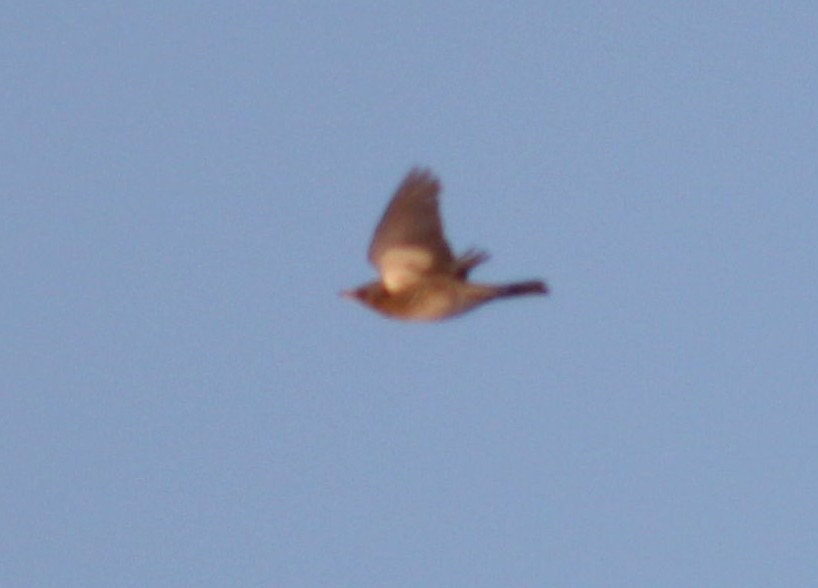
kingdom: Animalia
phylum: Chordata
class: Aves
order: Passeriformes
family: Turdidae
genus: Turdus
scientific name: Turdus pilaris
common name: Fieldfare
